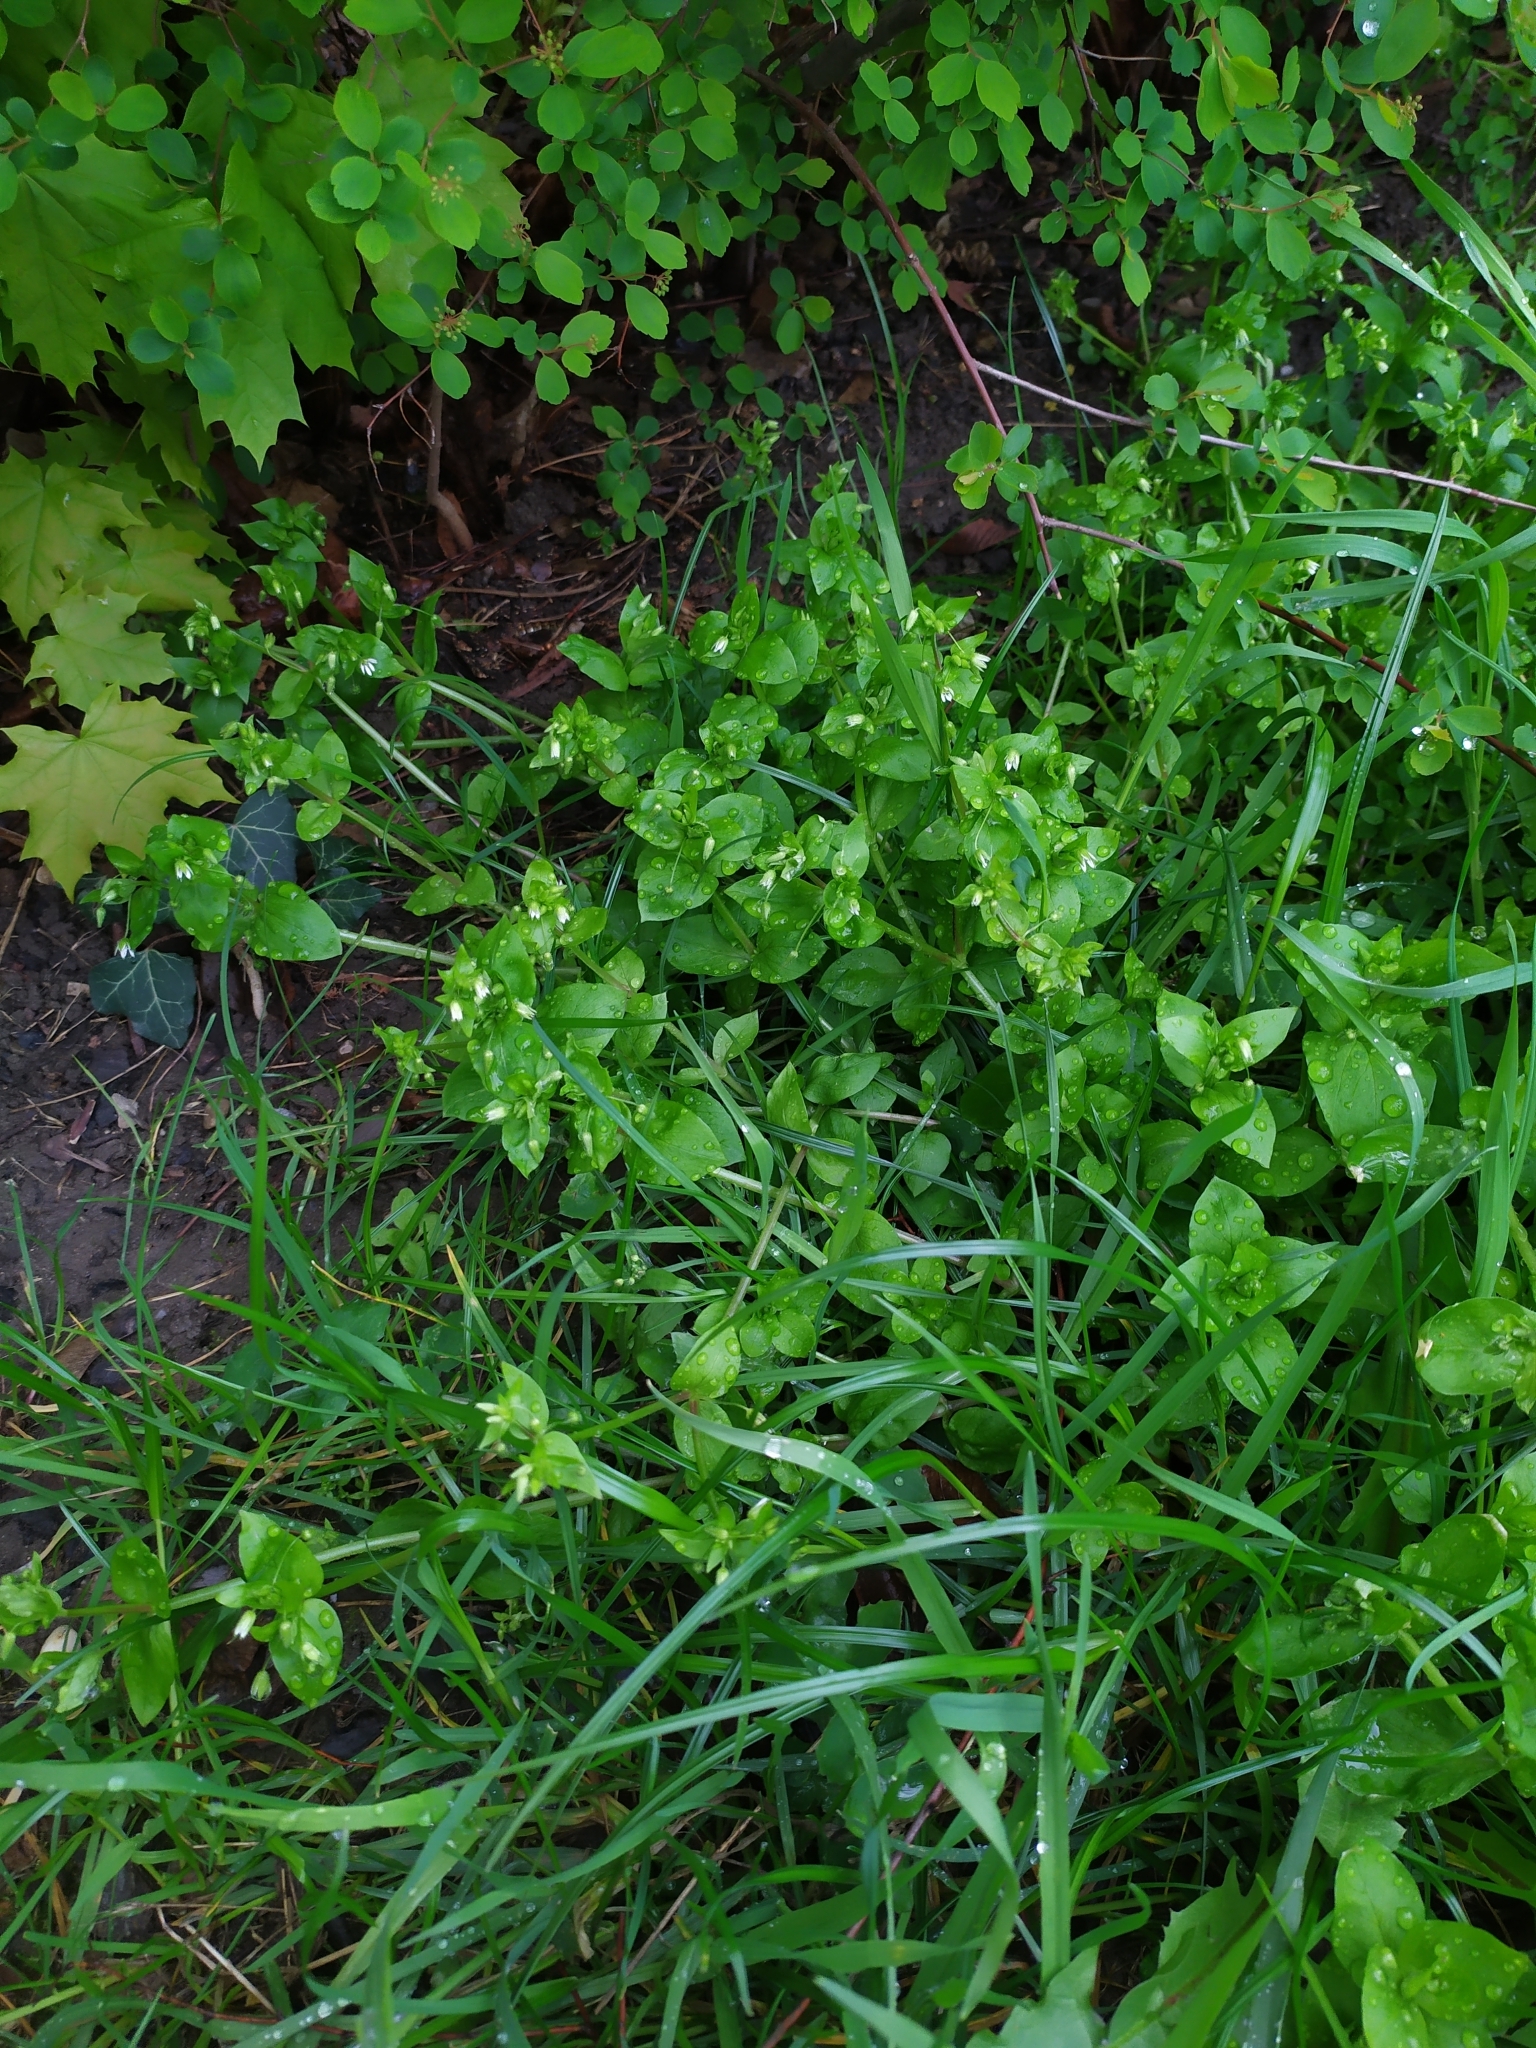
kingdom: Fungi
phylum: Ascomycota
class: Dothideomycetes
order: Mycosphaerellales
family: Mycosphaerellaceae
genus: Septoria
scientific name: Septoria stellariae
